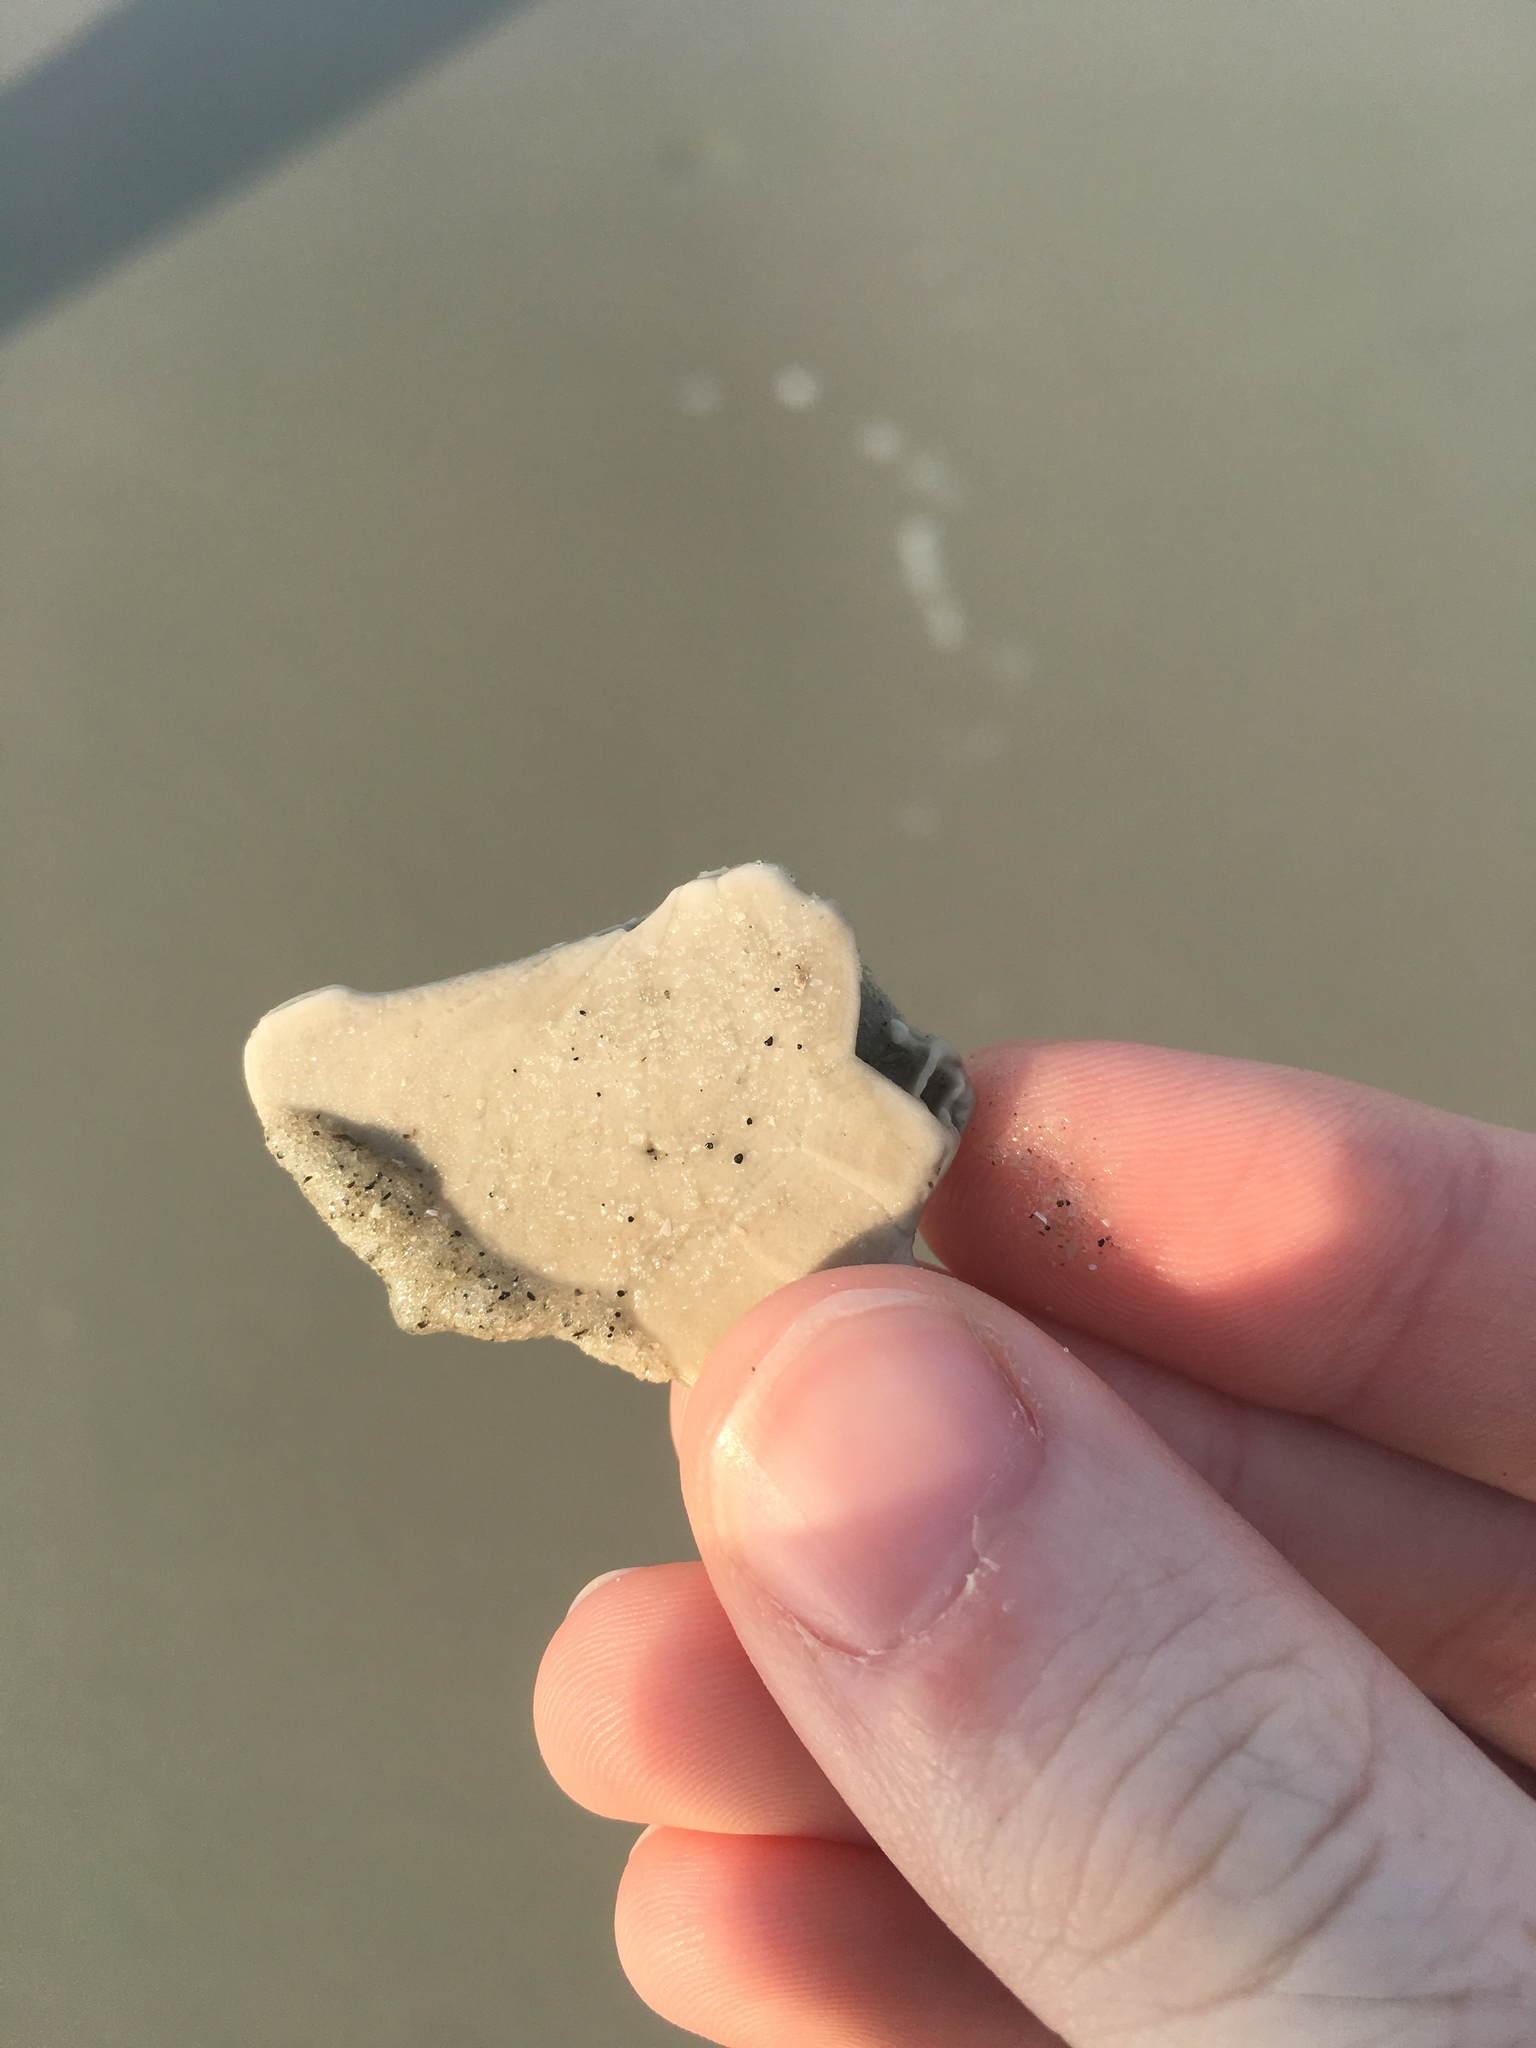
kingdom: Animalia
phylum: Echinodermata
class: Echinoidea
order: Echinolampadacea
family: Mellitidae
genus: Mellita
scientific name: Mellita isometra
